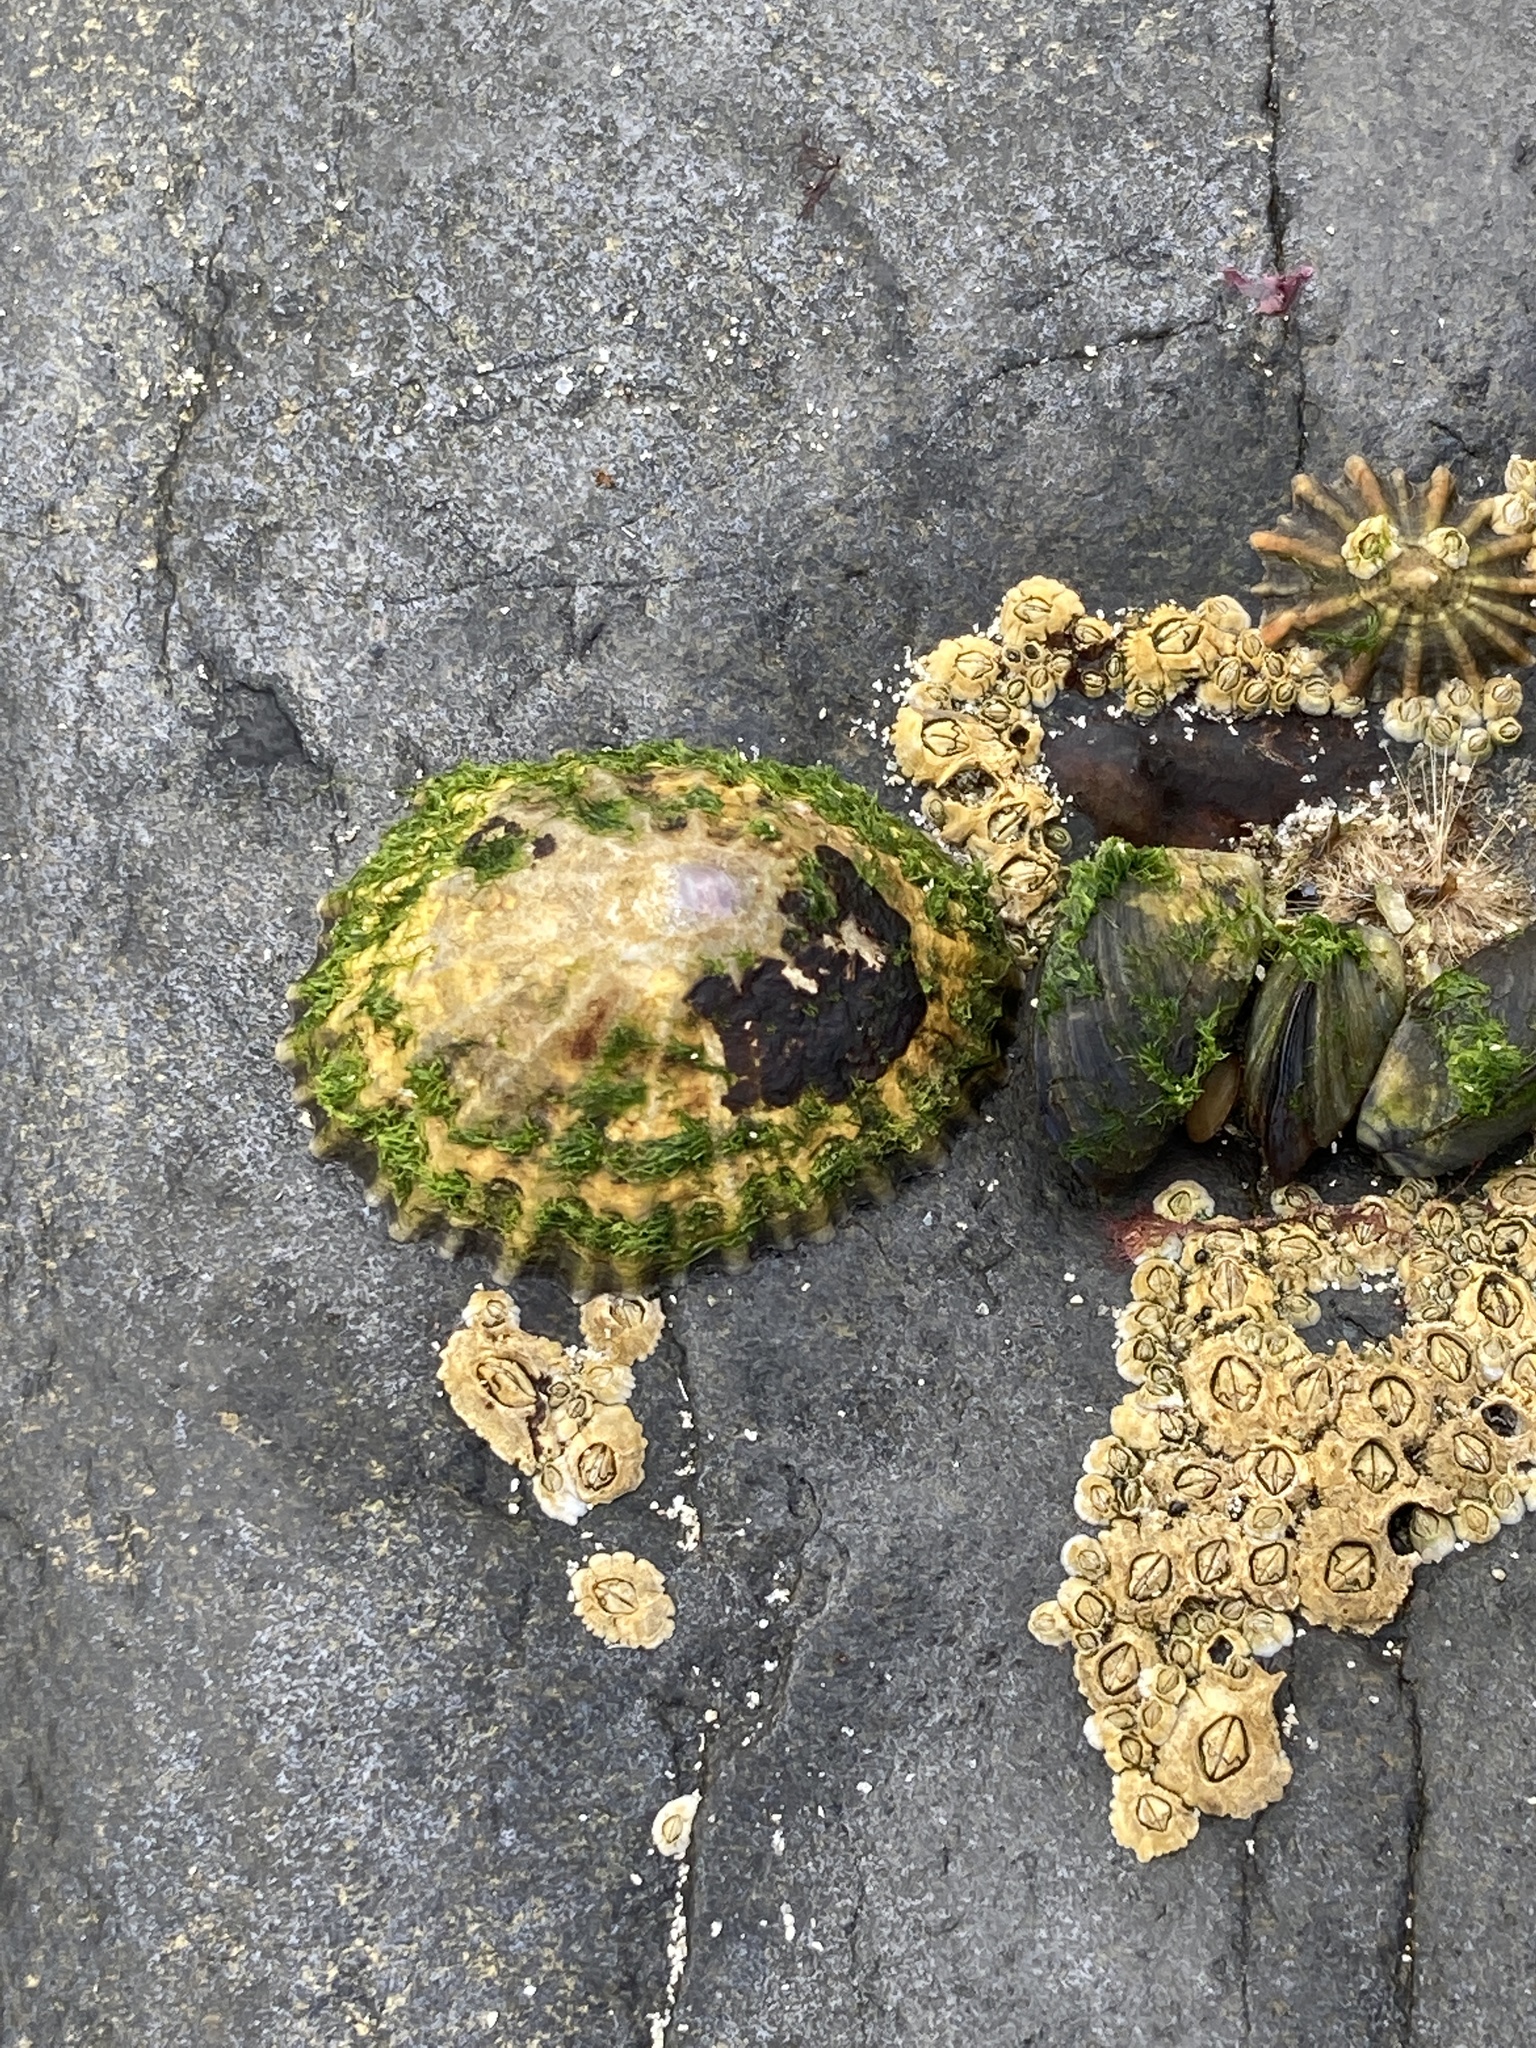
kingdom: Animalia
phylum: Mollusca
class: Gastropoda
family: Patellidae
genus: Patella
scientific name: Patella
